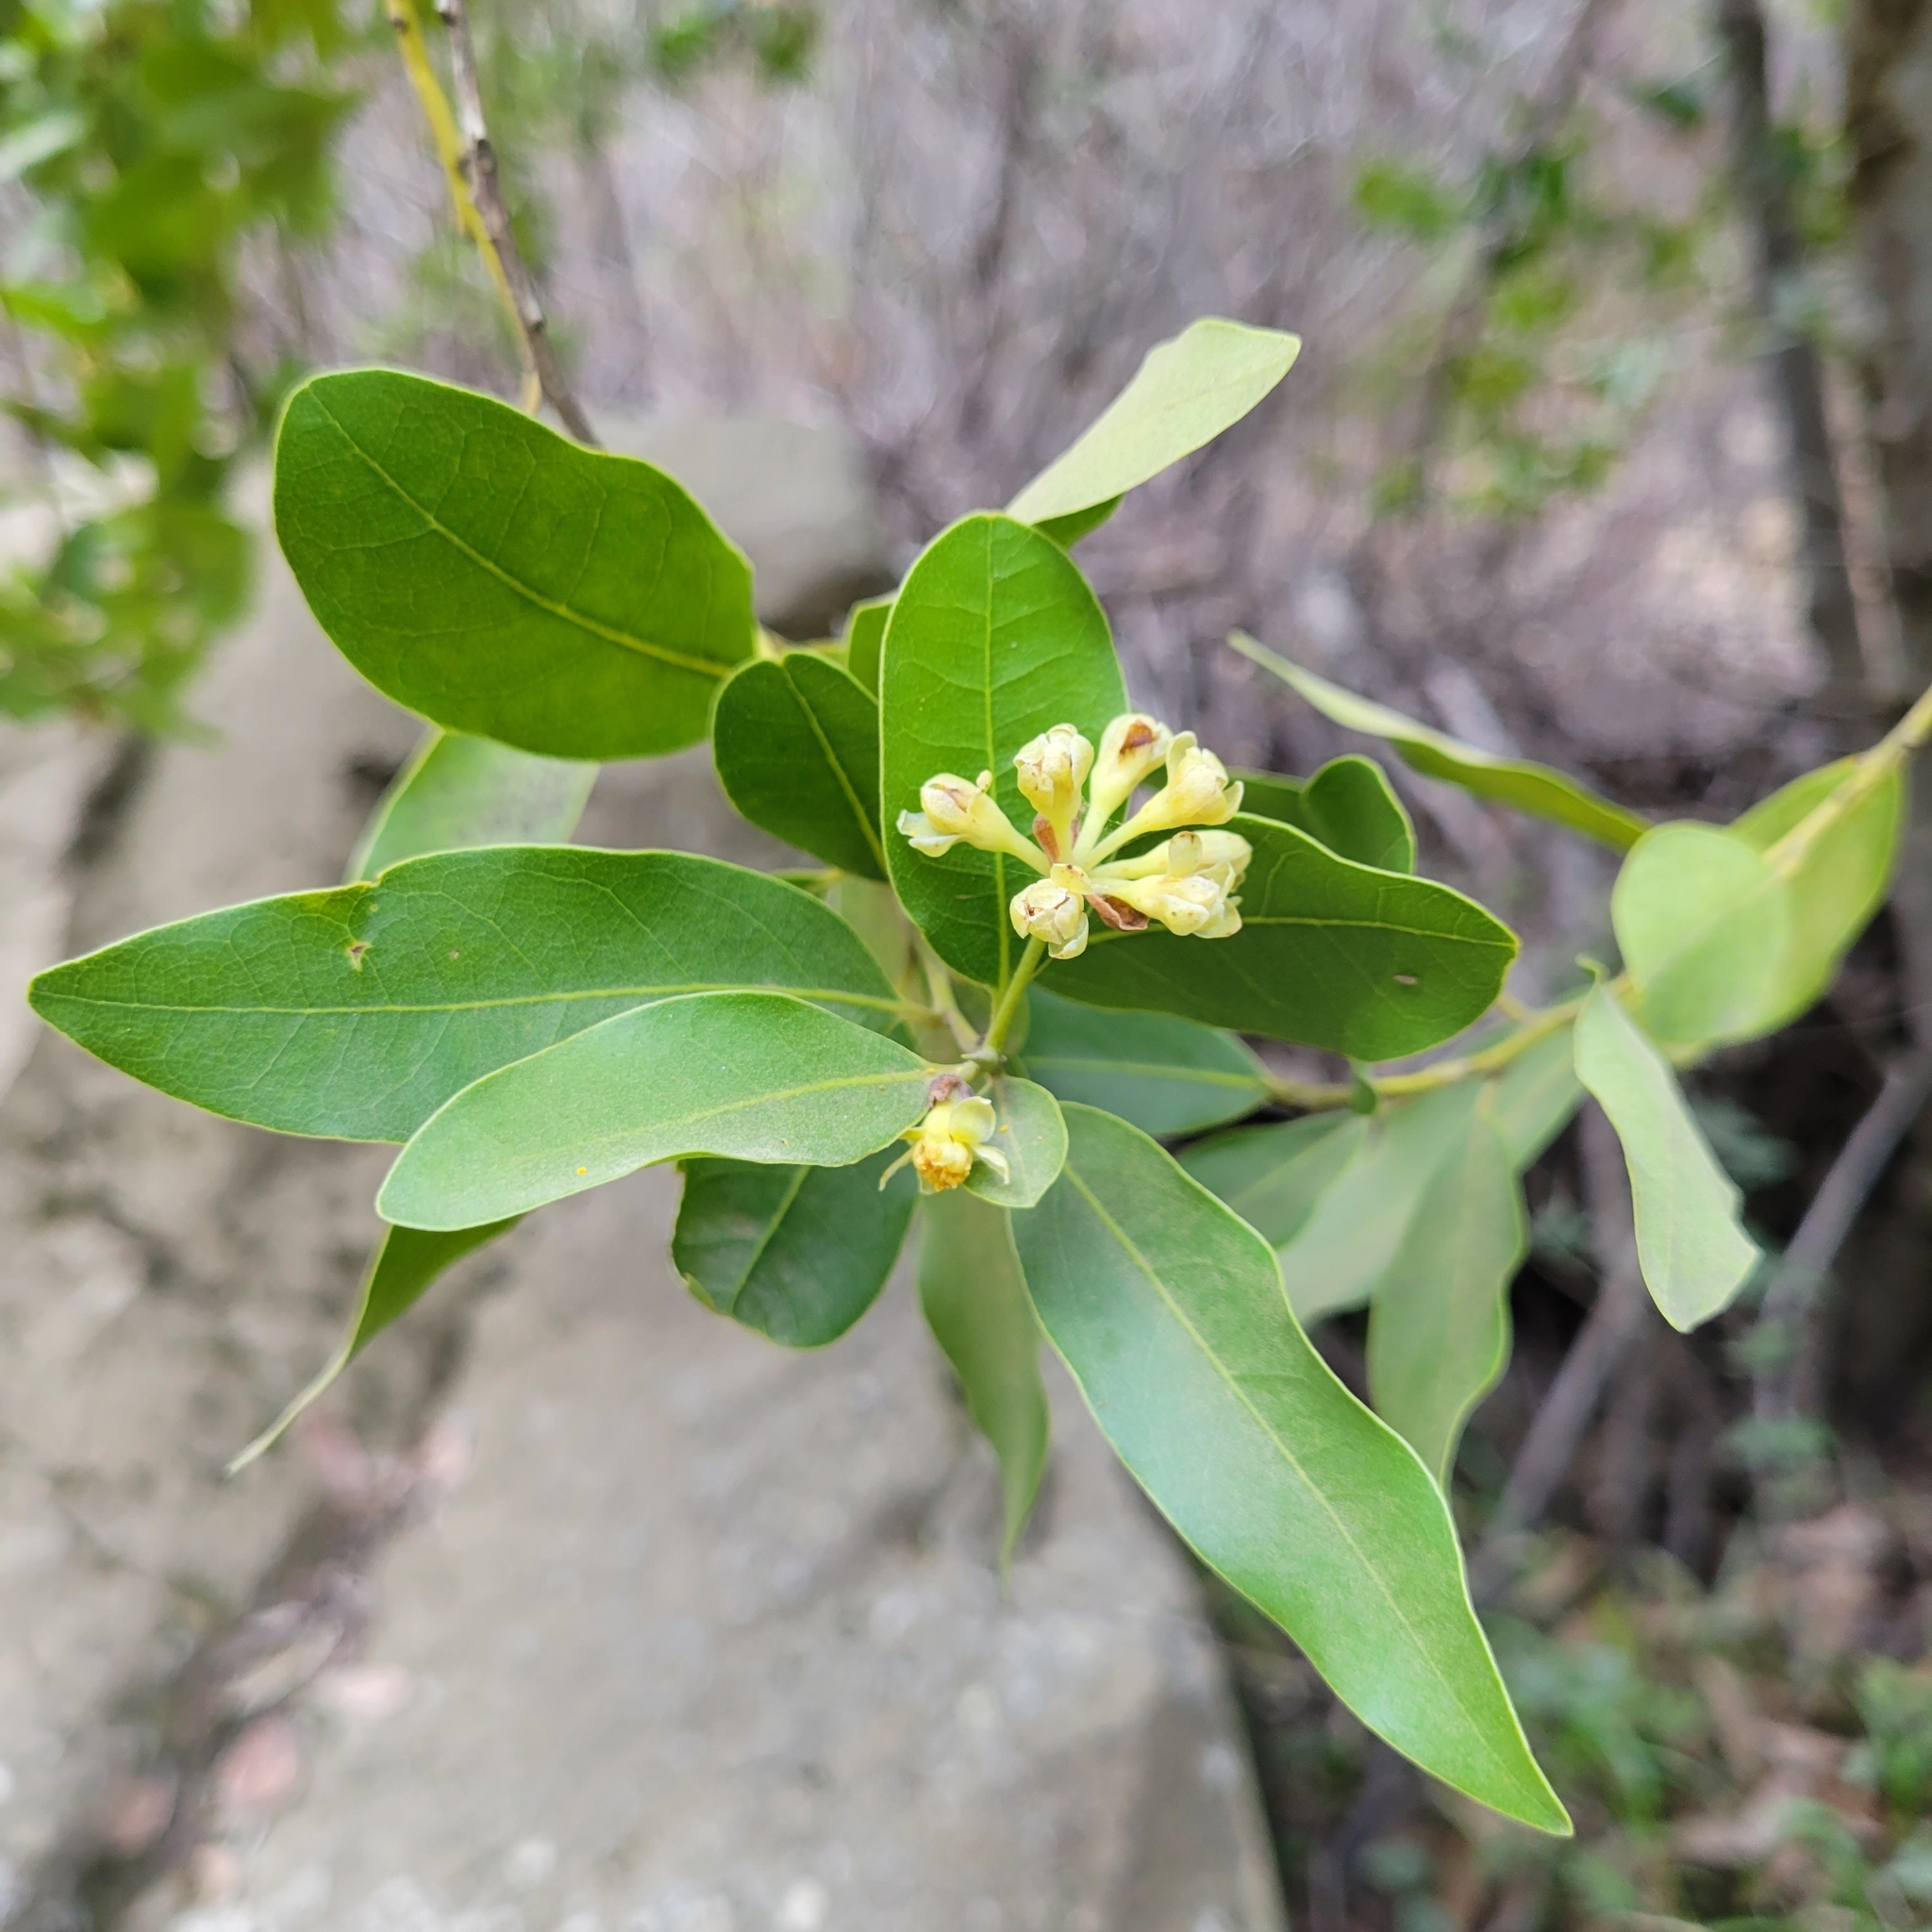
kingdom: Plantae
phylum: Tracheophyta
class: Magnoliopsida
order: Laurales
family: Lauraceae
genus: Umbellularia
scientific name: Umbellularia californica
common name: California bay
